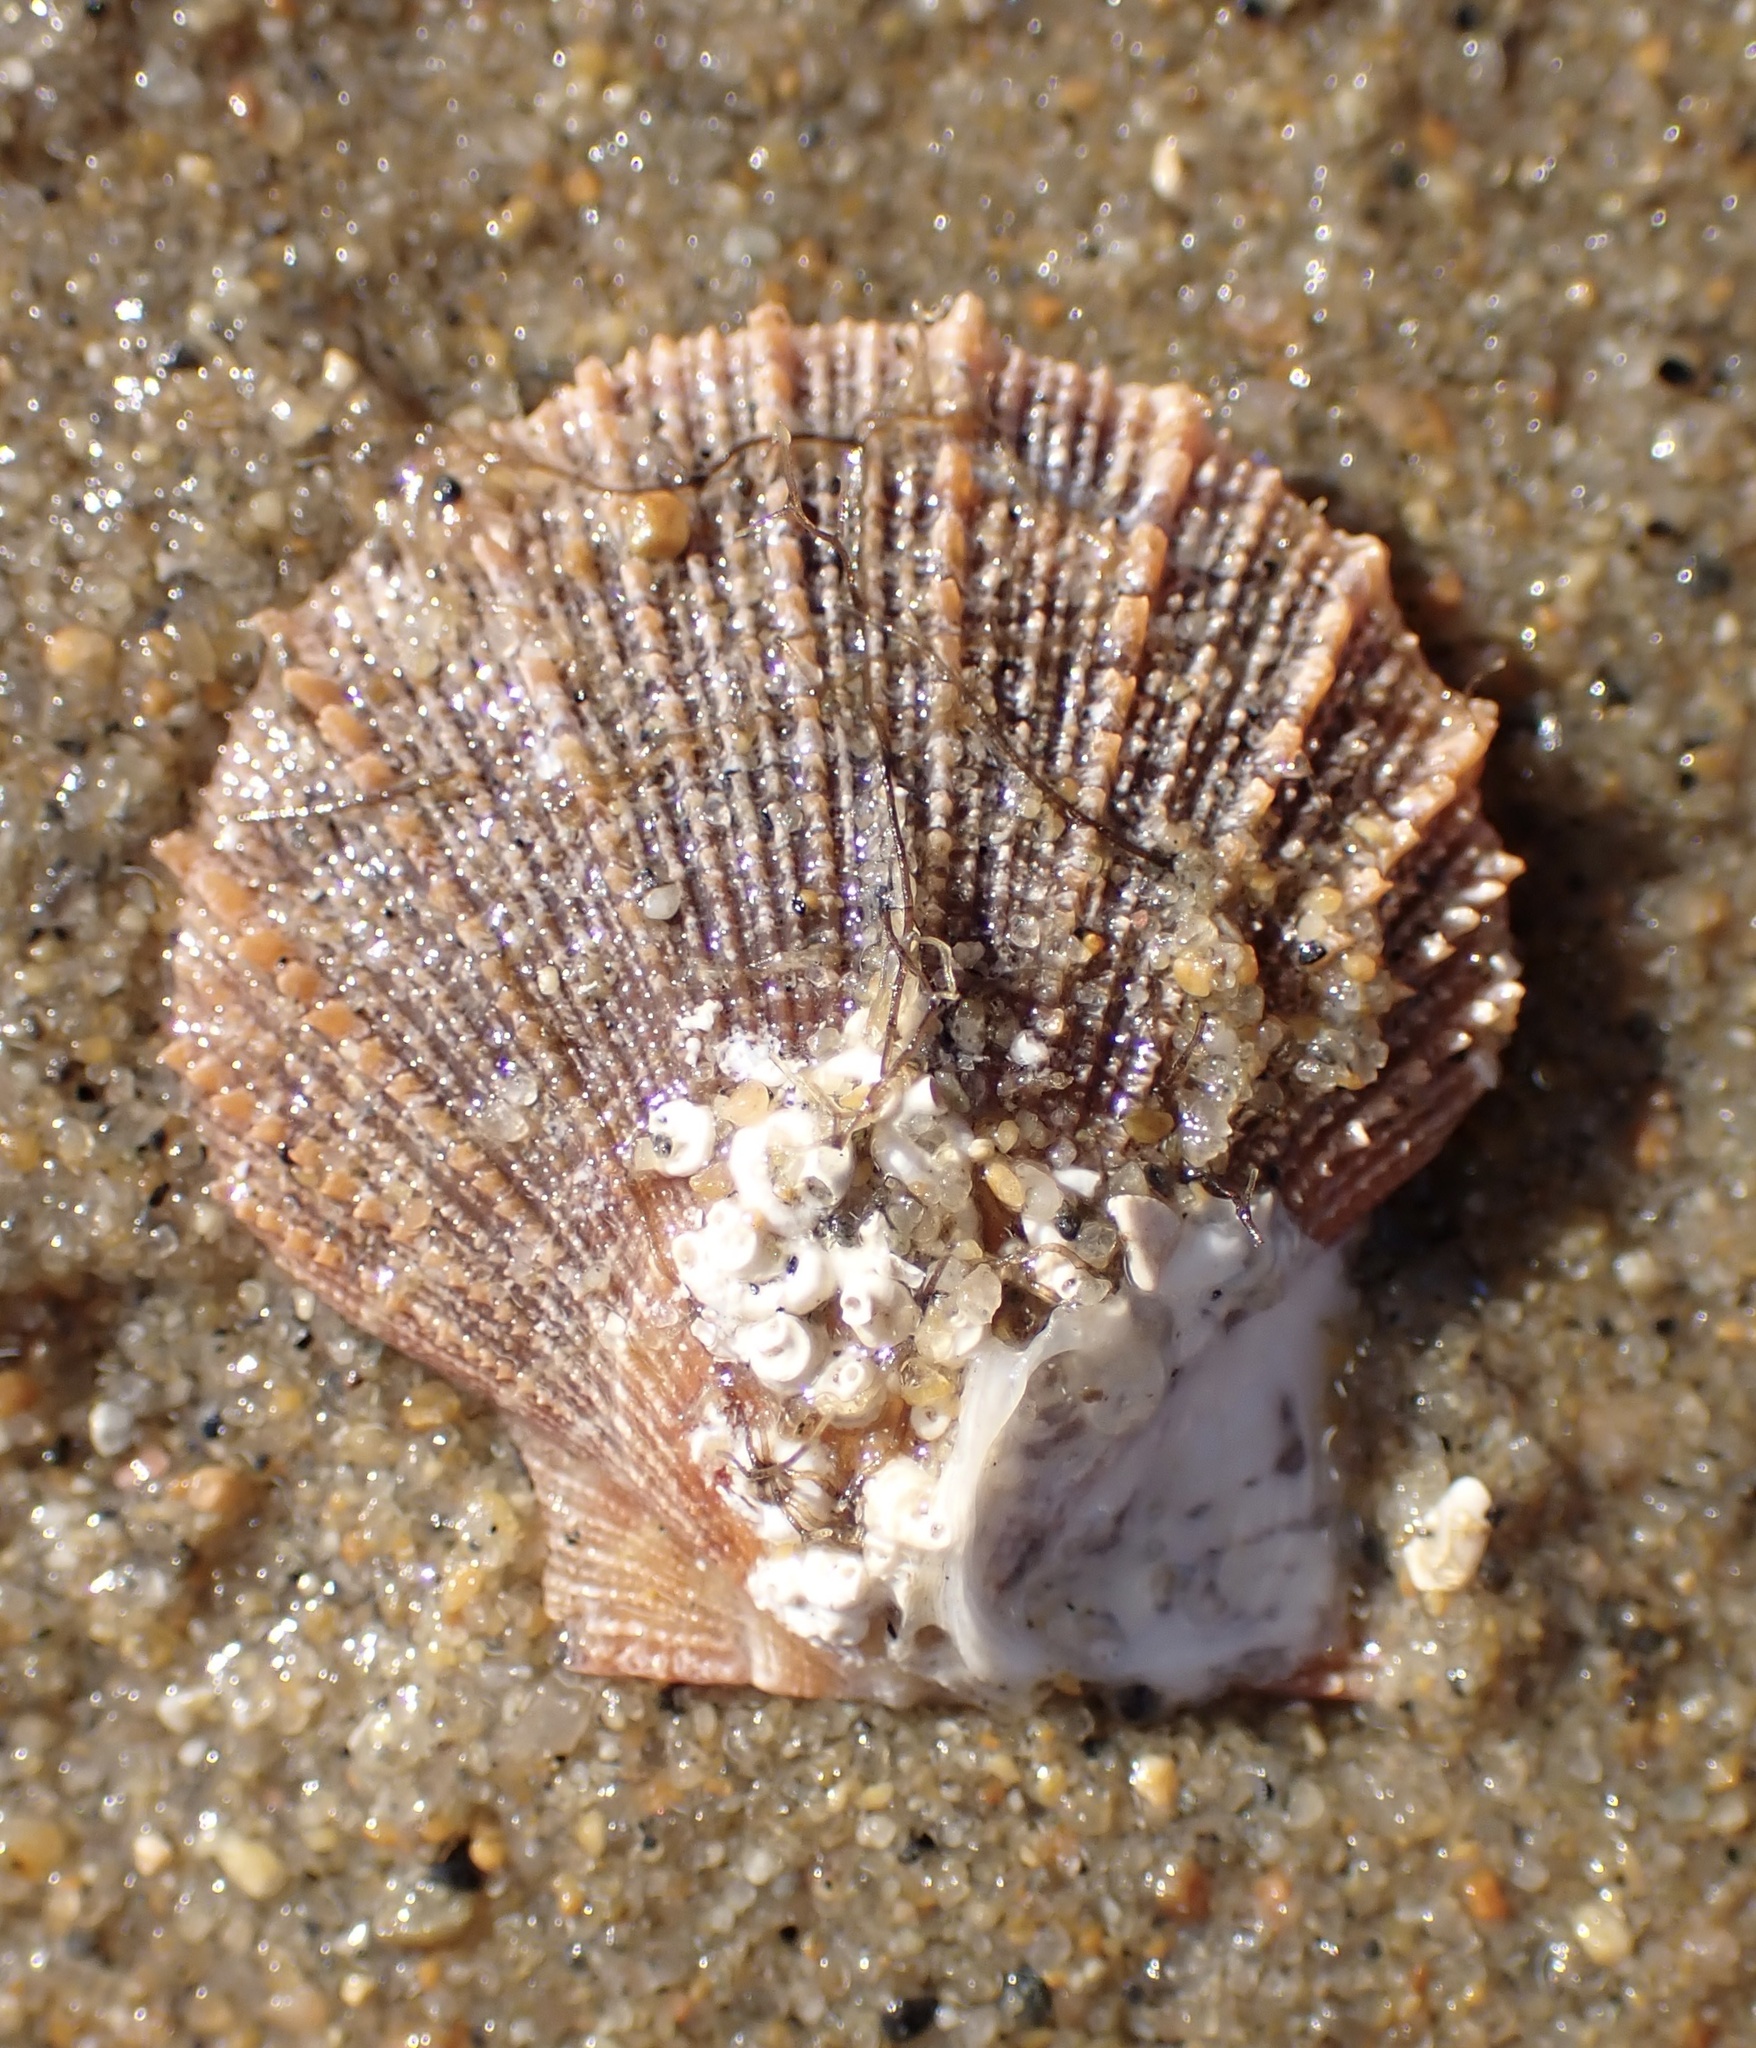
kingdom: Animalia
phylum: Mollusca
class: Bivalvia
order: Pectinida
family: Pectinidae
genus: Crassadoma
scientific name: Crassadoma gigantea
